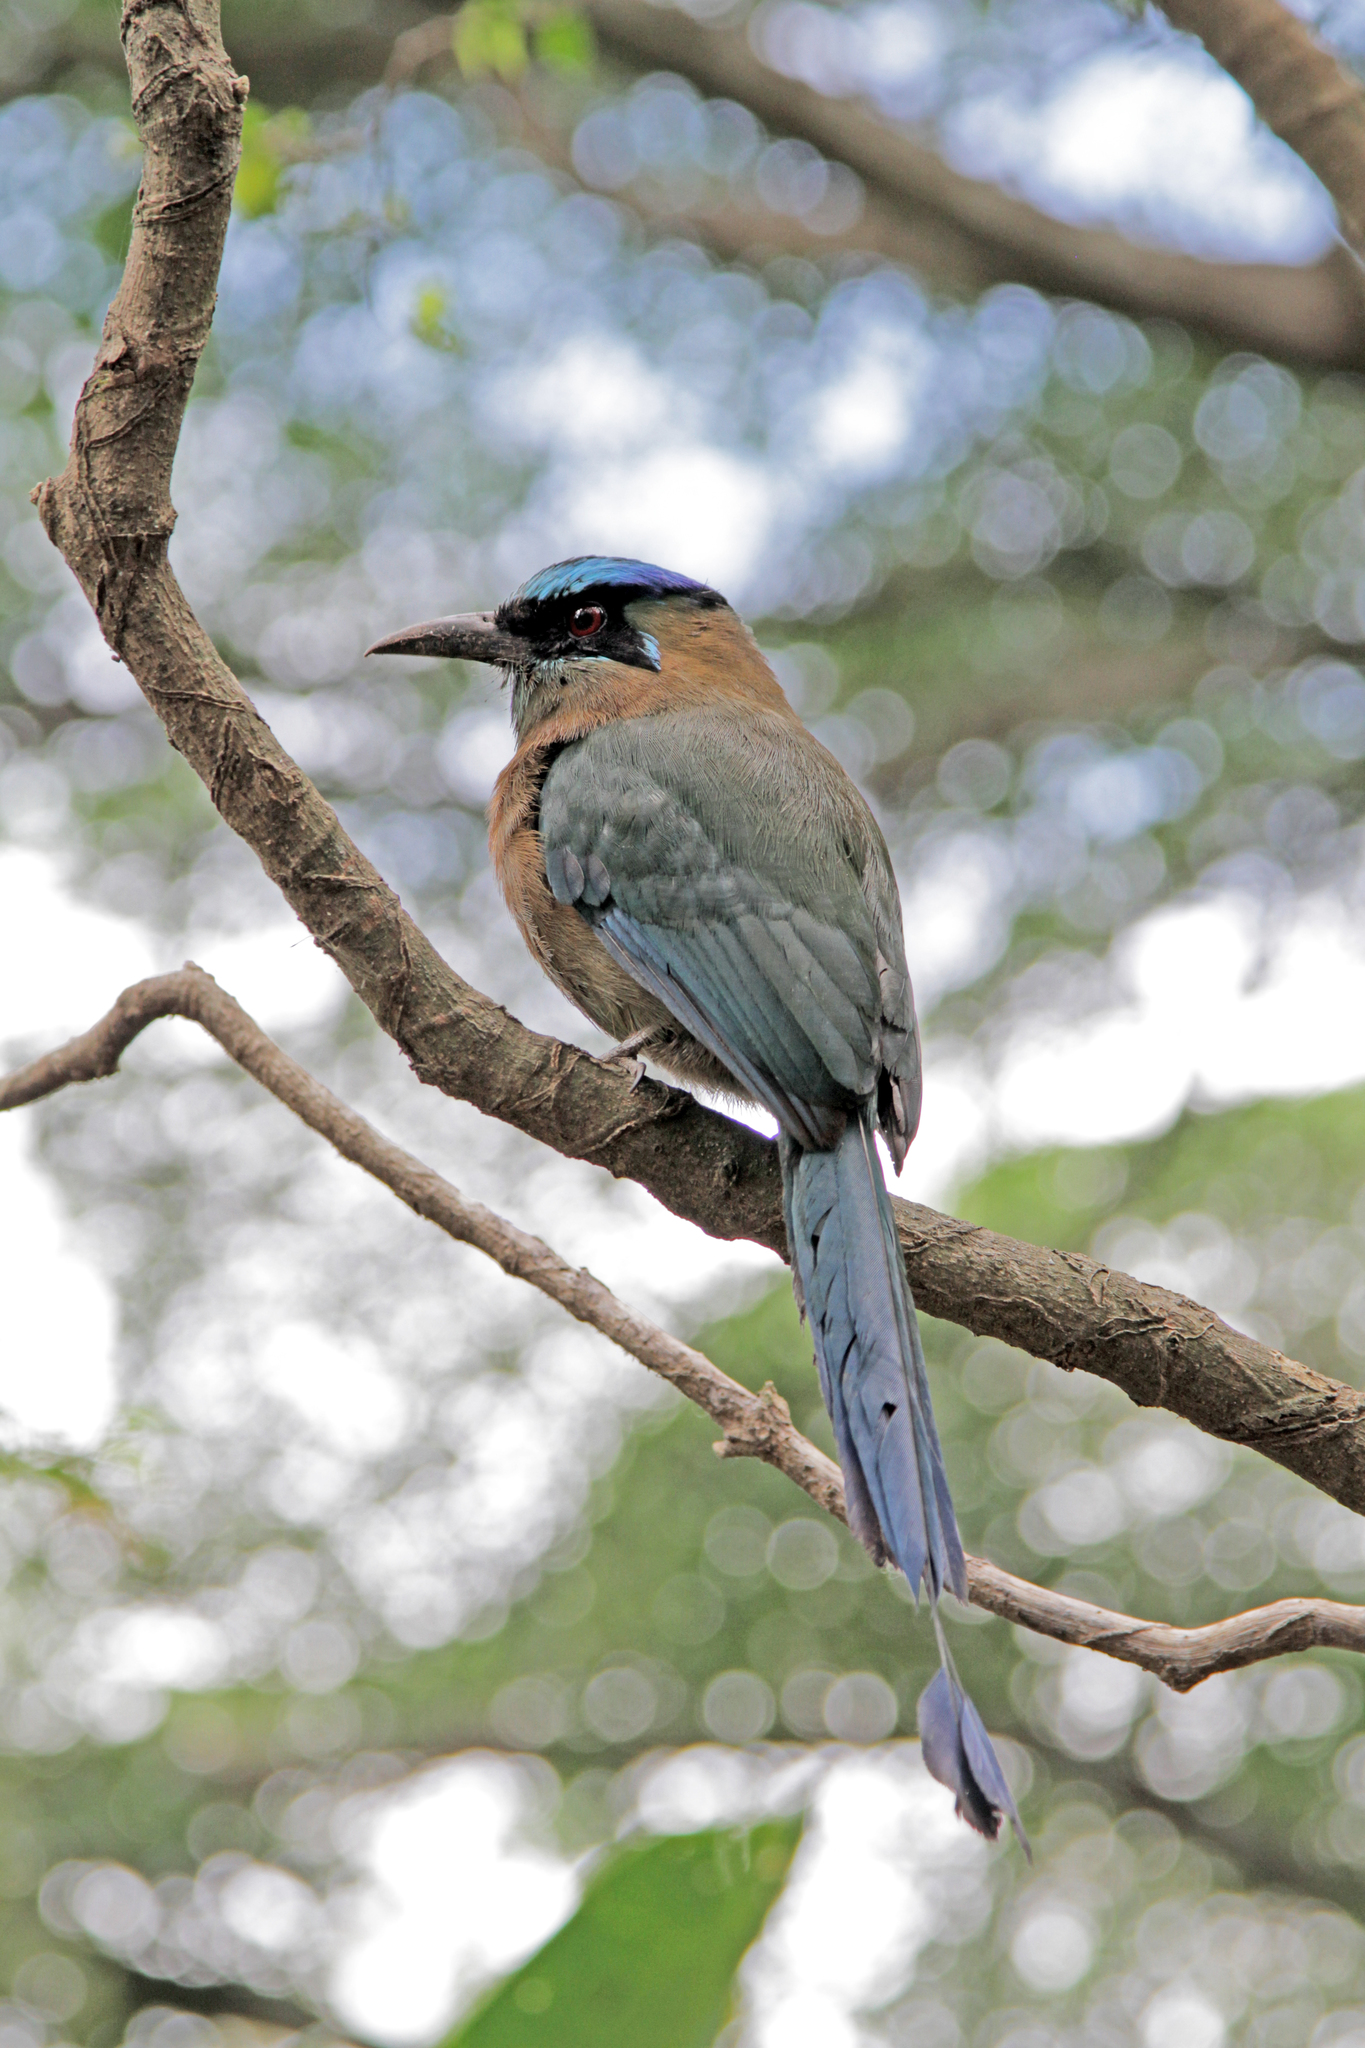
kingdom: Animalia
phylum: Chordata
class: Aves
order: Coraciiformes
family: Momotidae
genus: Momotus
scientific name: Momotus lessonii
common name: Lesson's motmot
